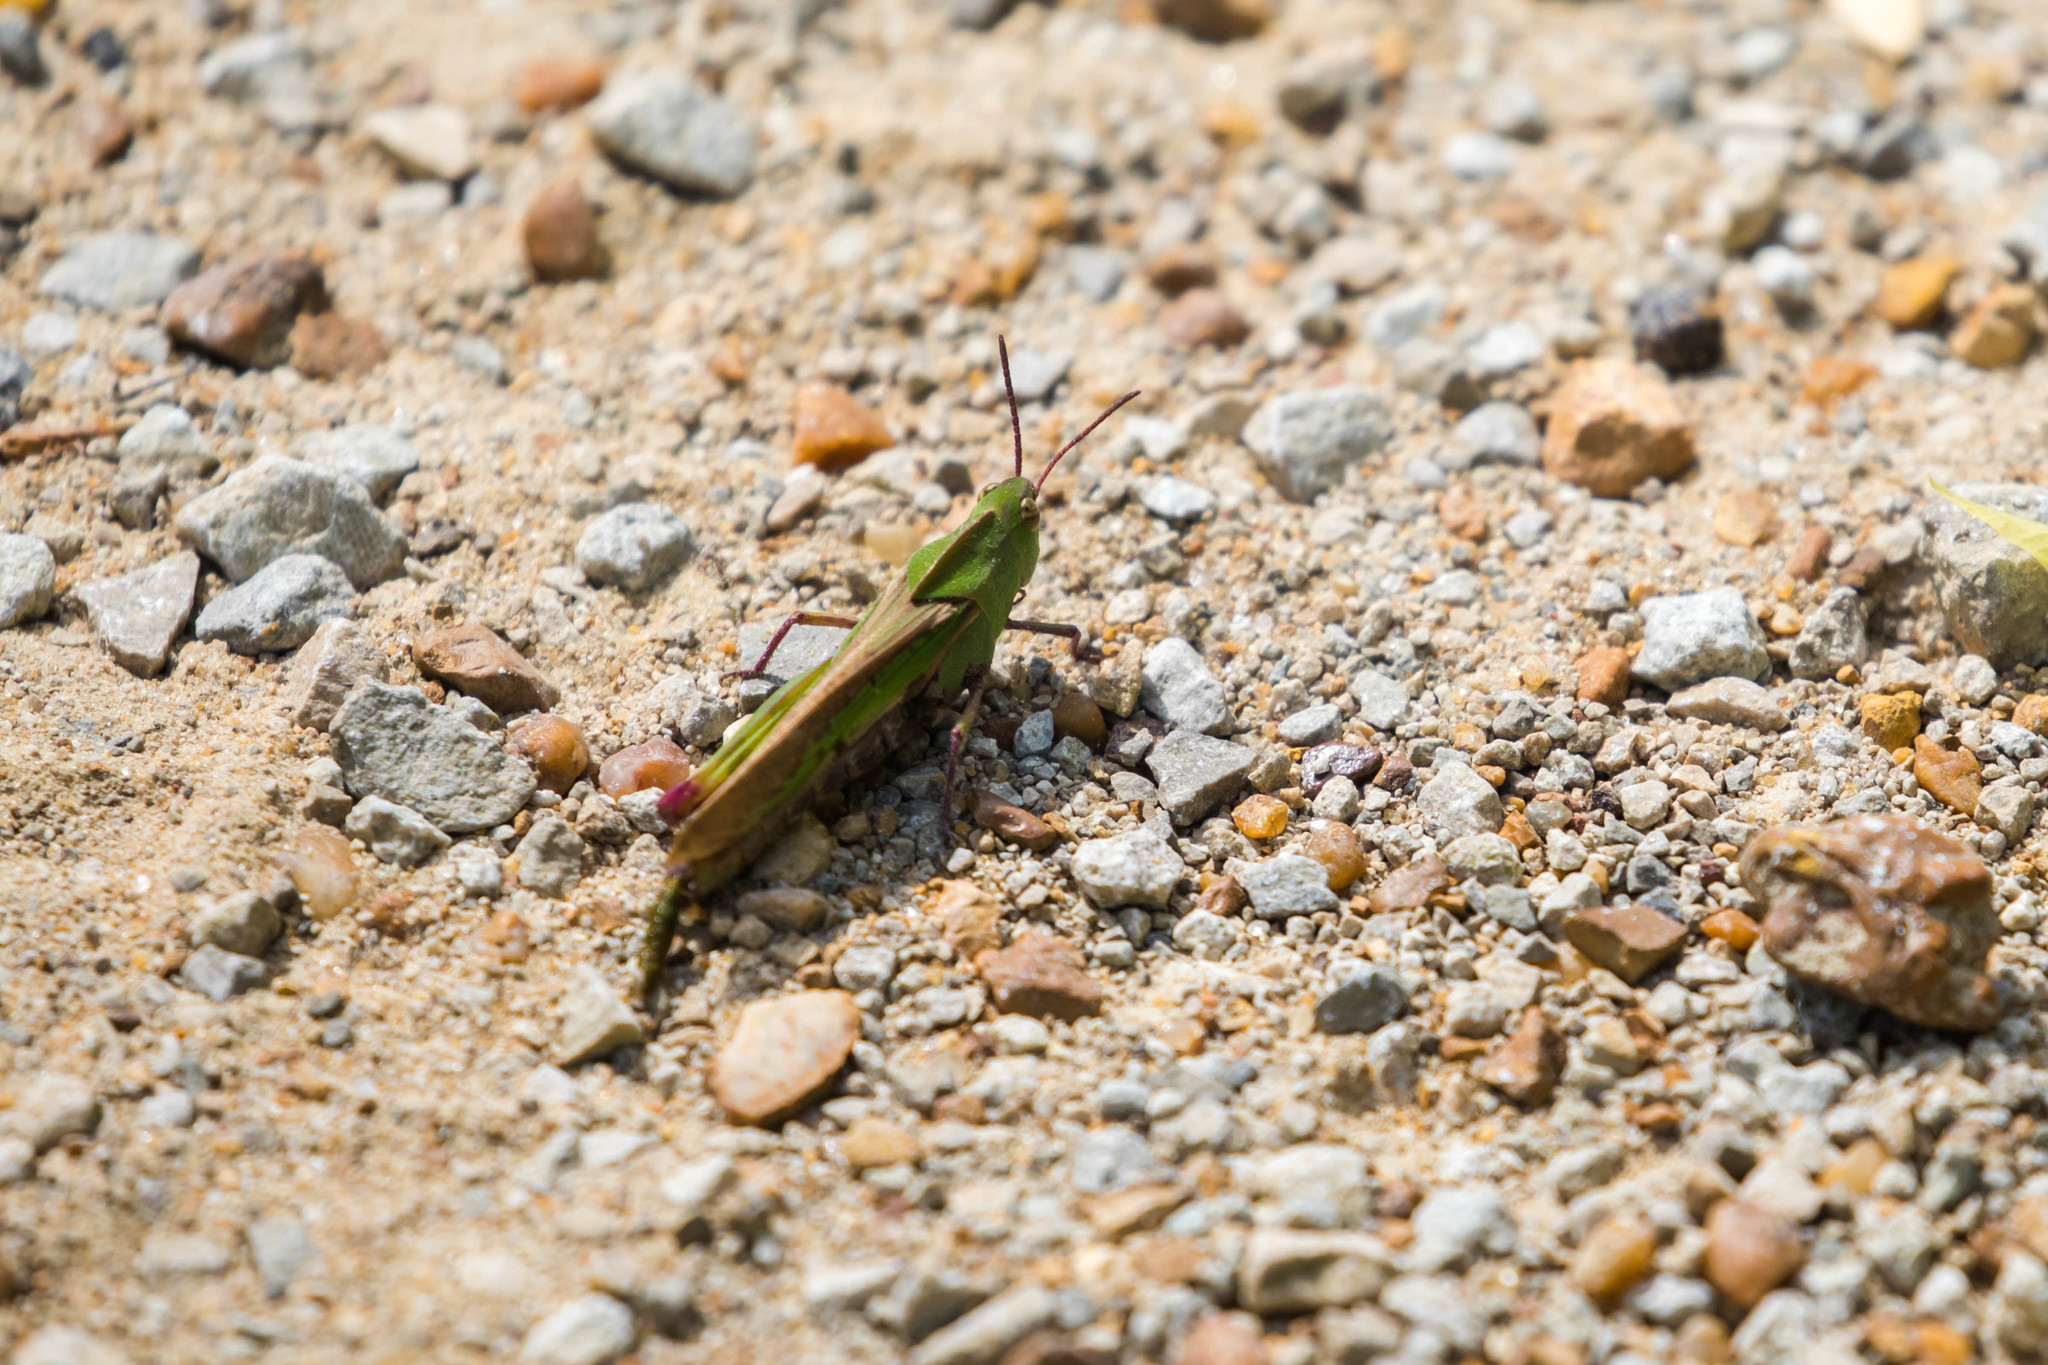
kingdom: Animalia
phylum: Arthropoda
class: Insecta
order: Orthoptera
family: Acrididae
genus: Chortophaga
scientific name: Chortophaga viridifasciata
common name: Green-striped grasshopper
